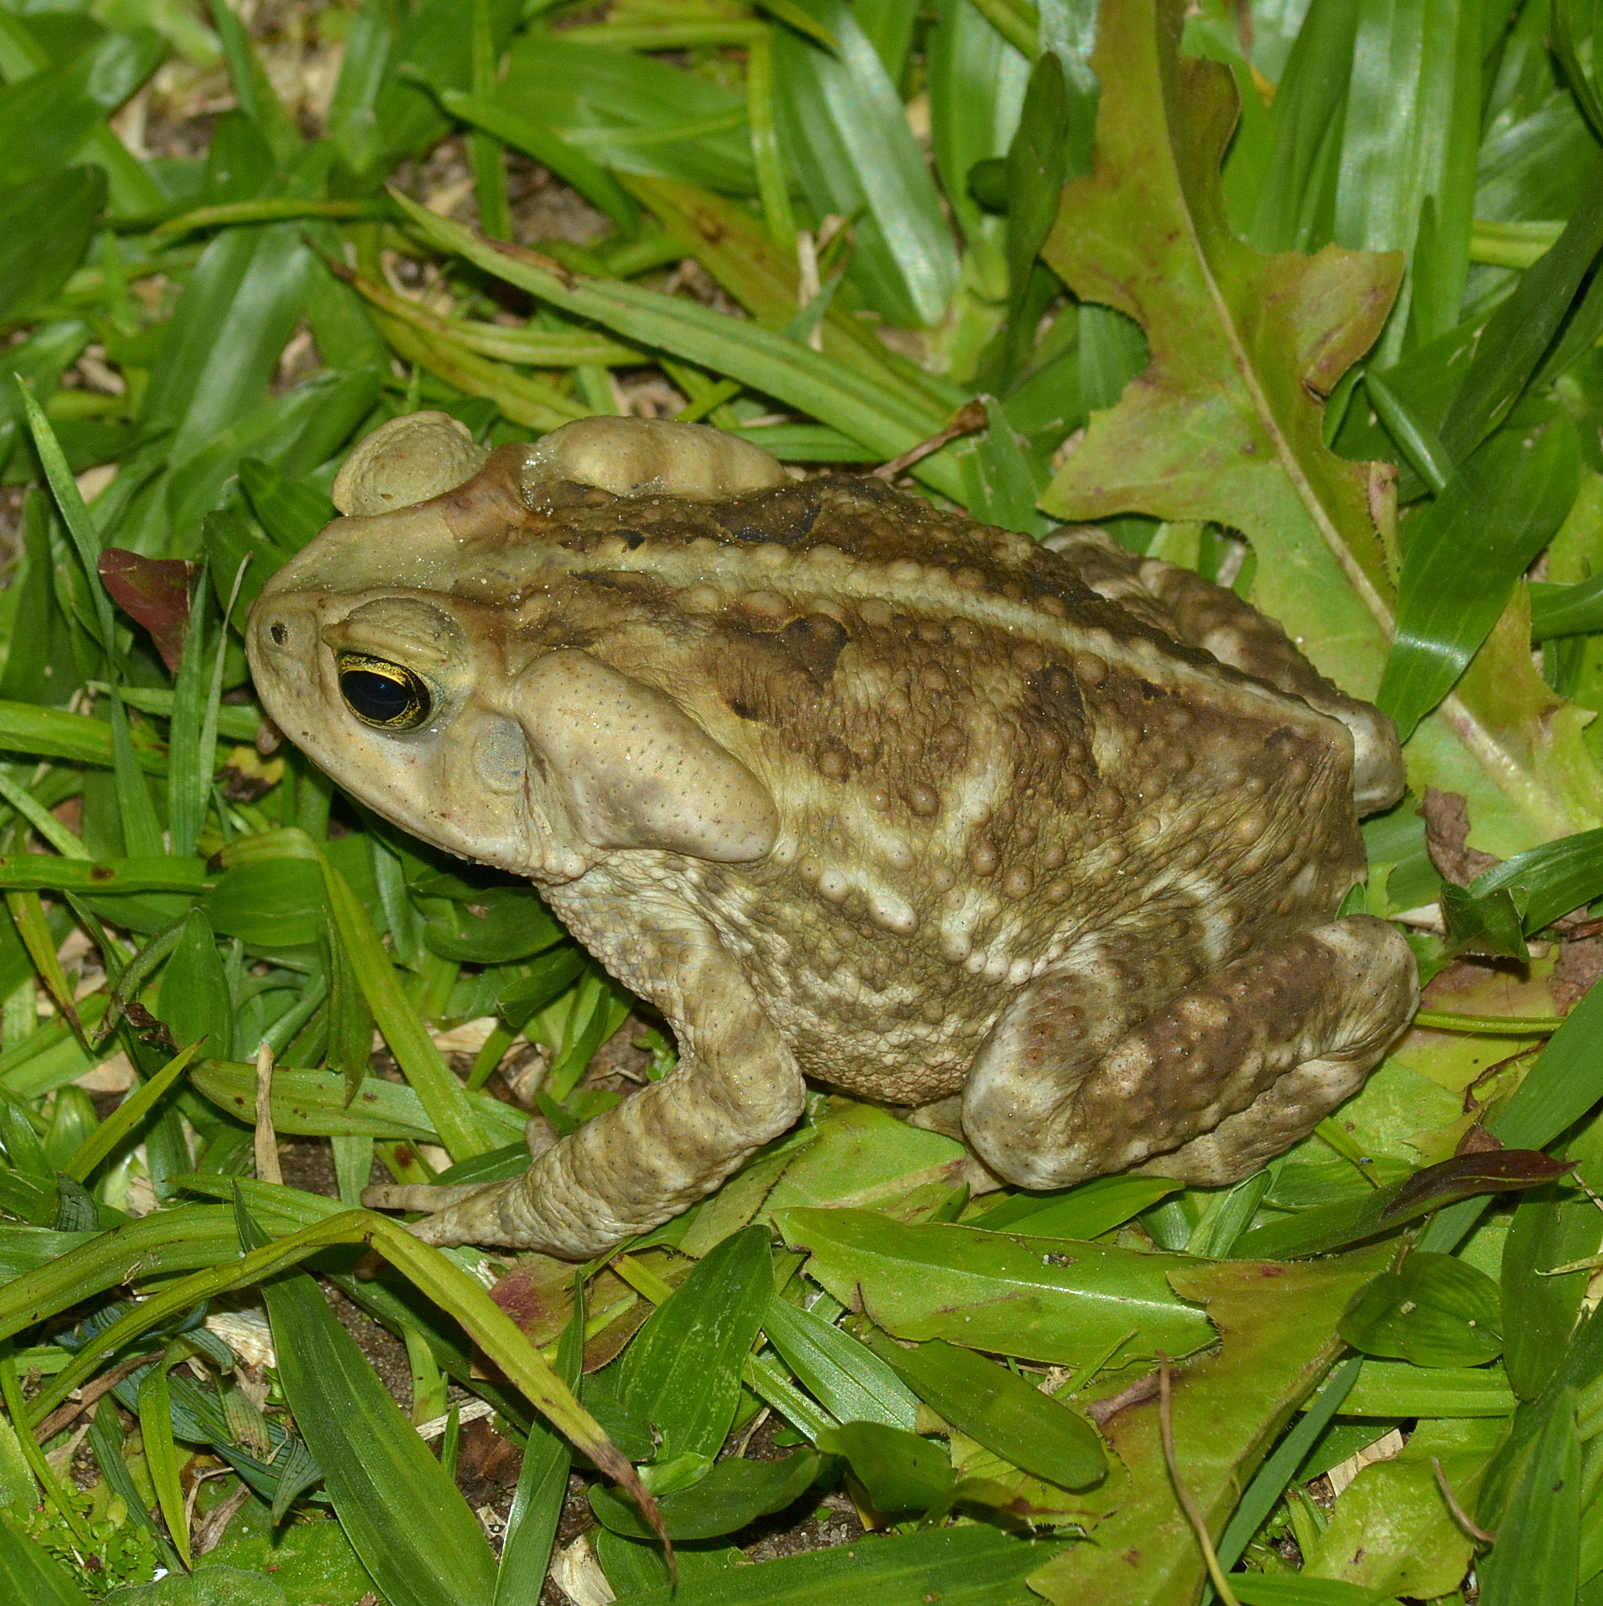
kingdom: Animalia
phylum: Chordata
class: Amphibia
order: Anura
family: Bufonidae
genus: Rhinella
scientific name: Rhinella icterica
